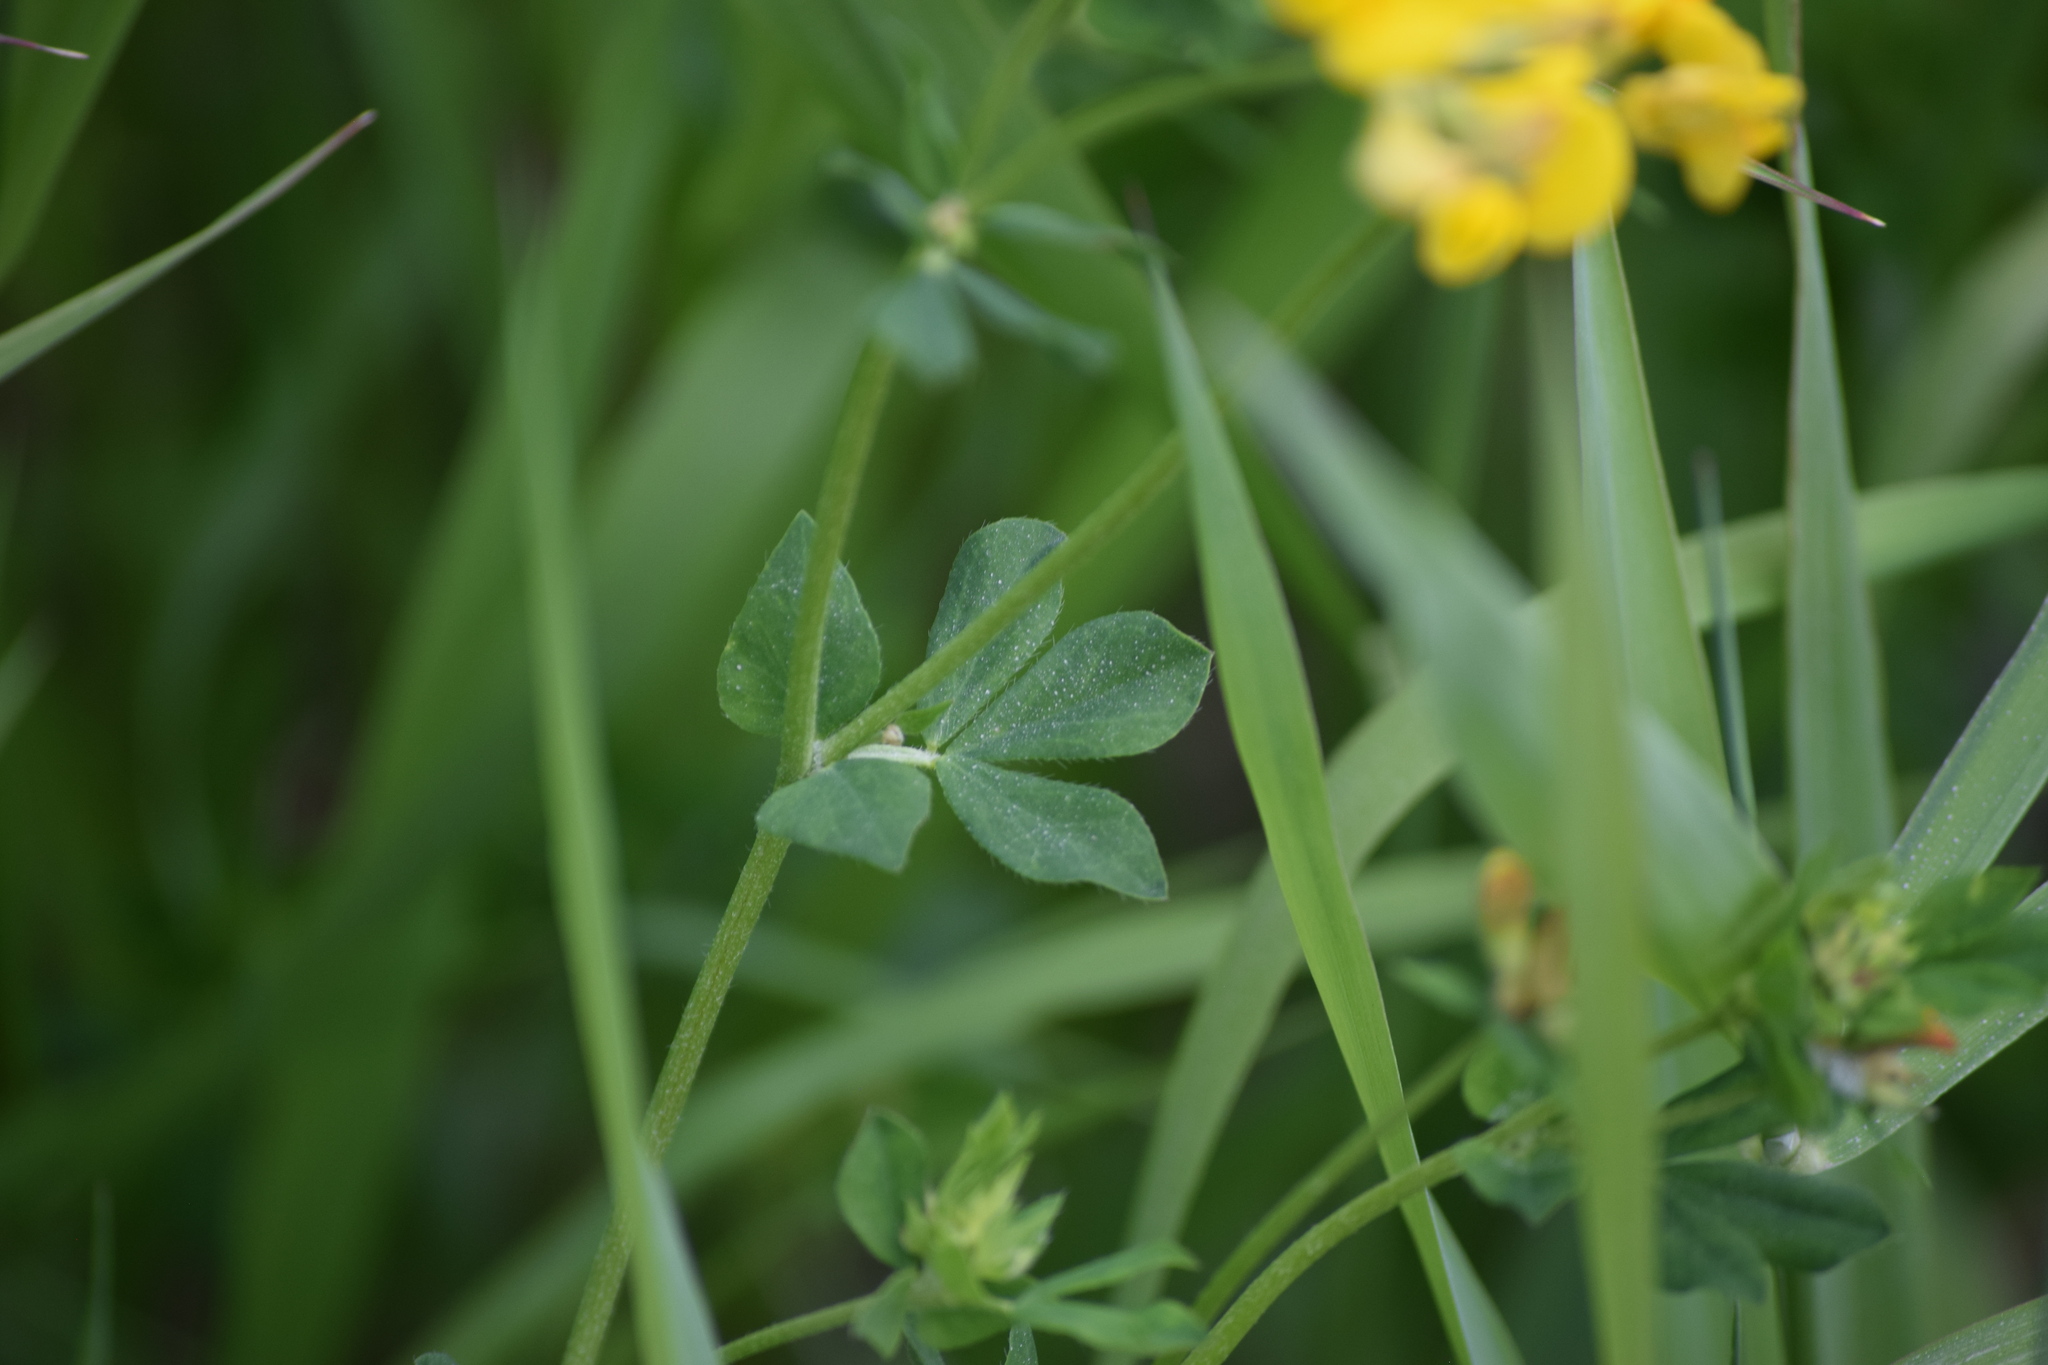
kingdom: Plantae
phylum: Tracheophyta
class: Magnoliopsida
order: Fabales
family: Fabaceae
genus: Lotus
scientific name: Lotus corniculatus
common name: Common bird's-foot-trefoil
